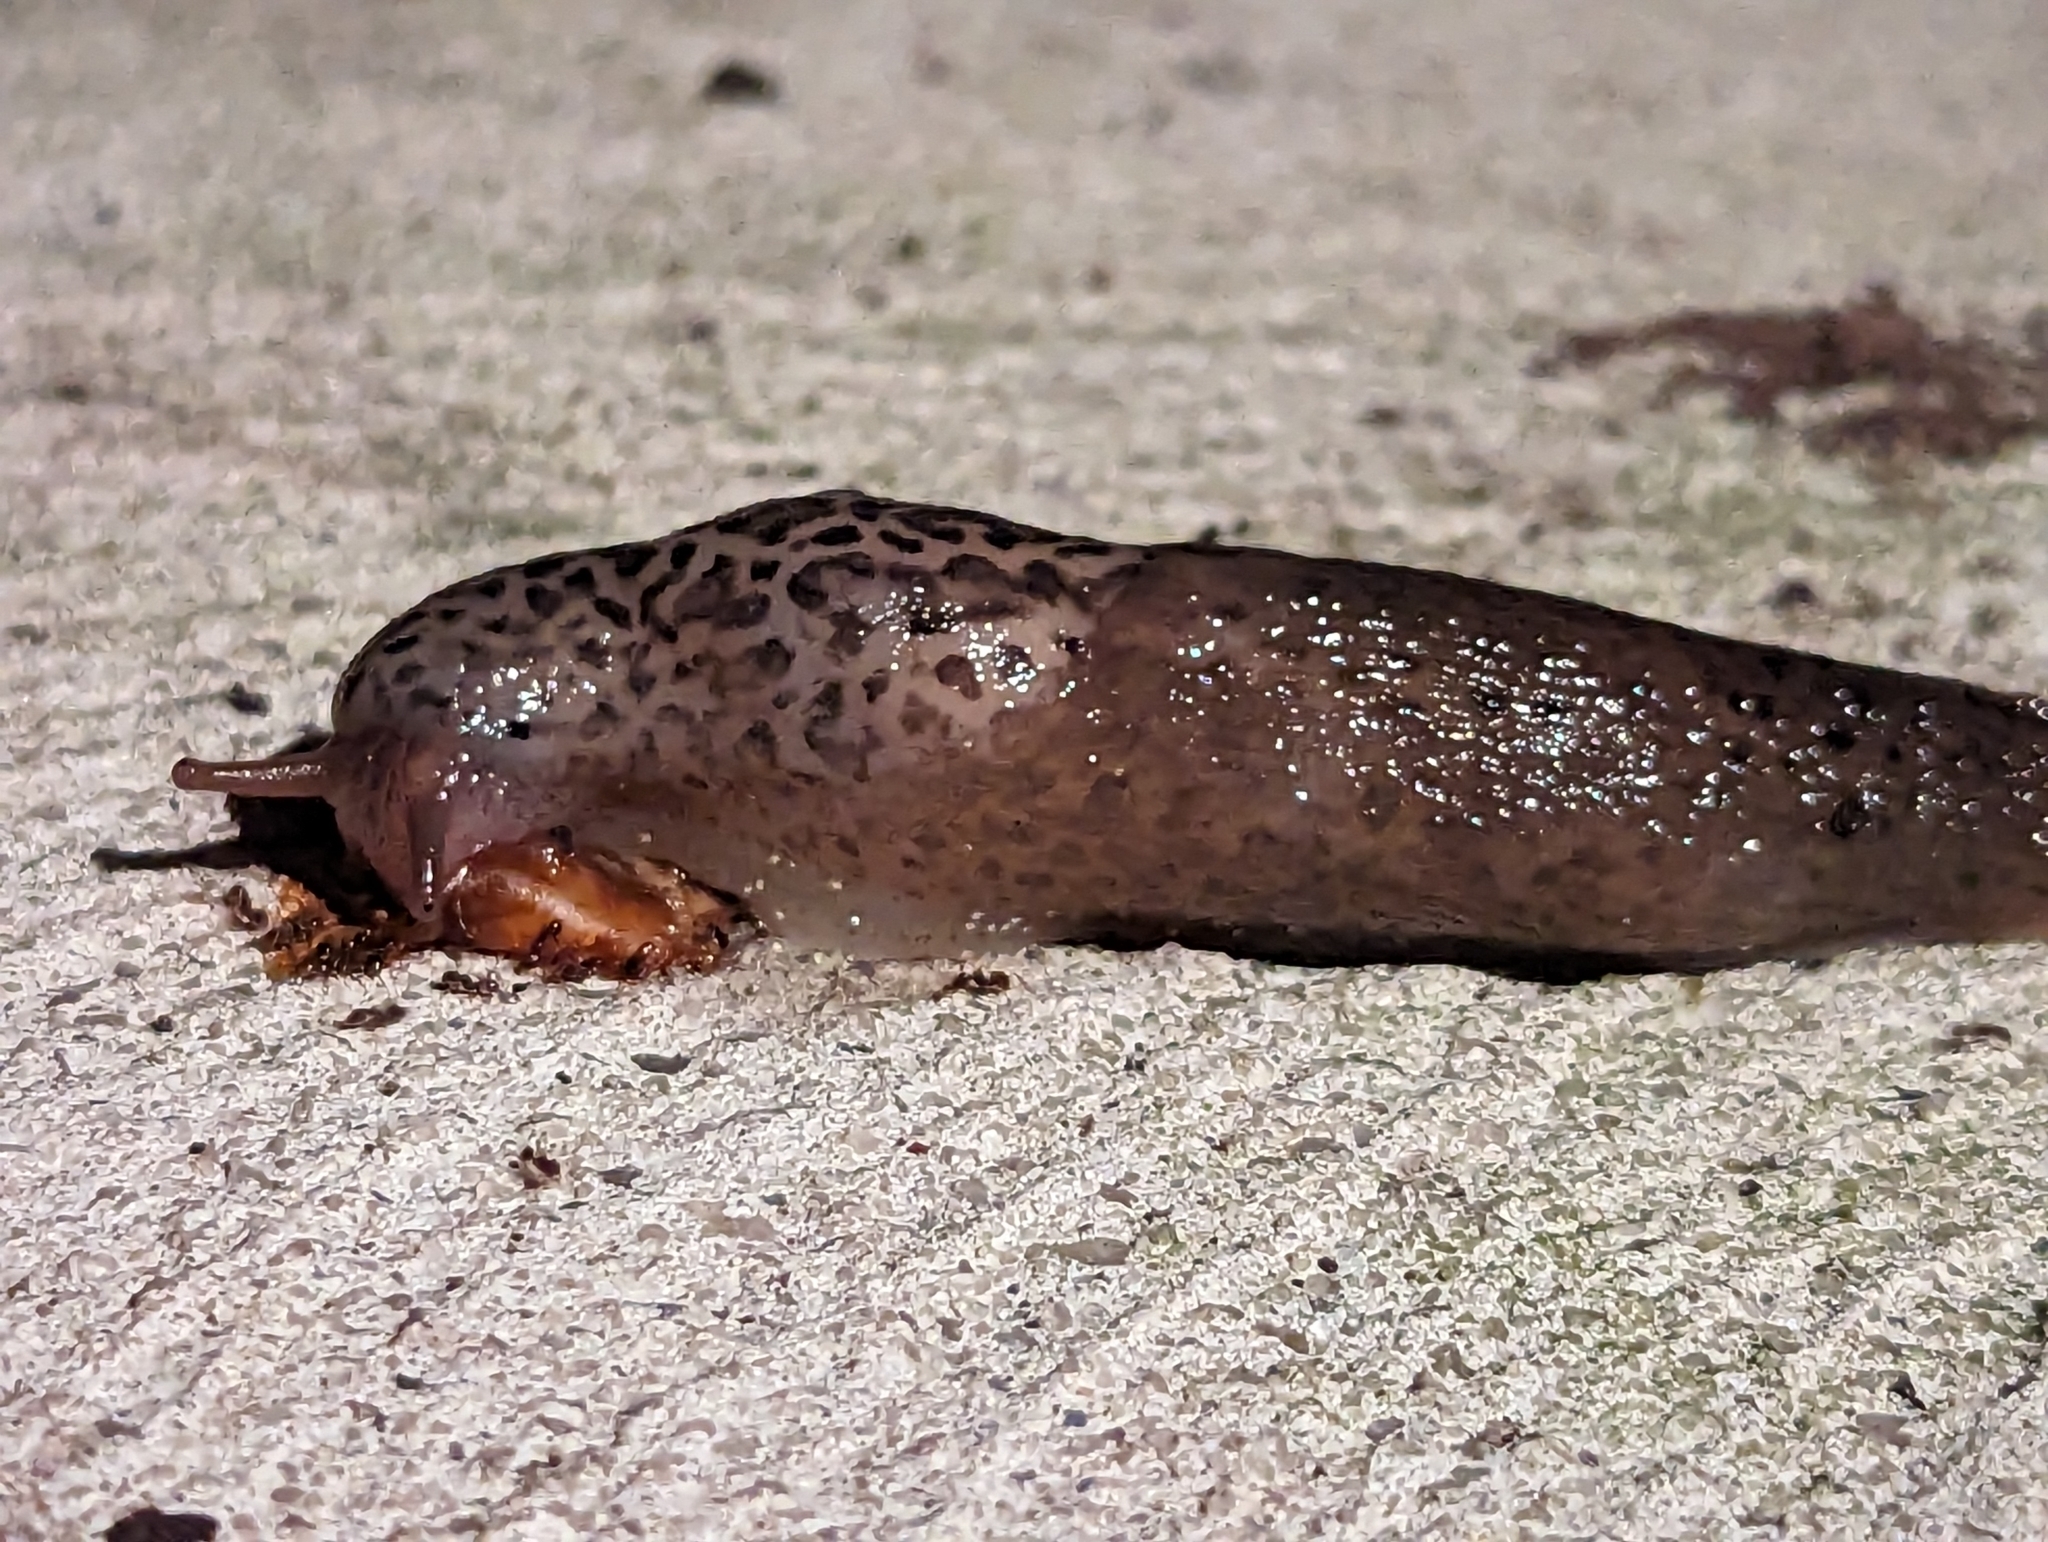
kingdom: Animalia
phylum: Mollusca
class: Gastropoda
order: Stylommatophora
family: Limacidae
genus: Limax
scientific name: Limax maximus
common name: Great grey slug
